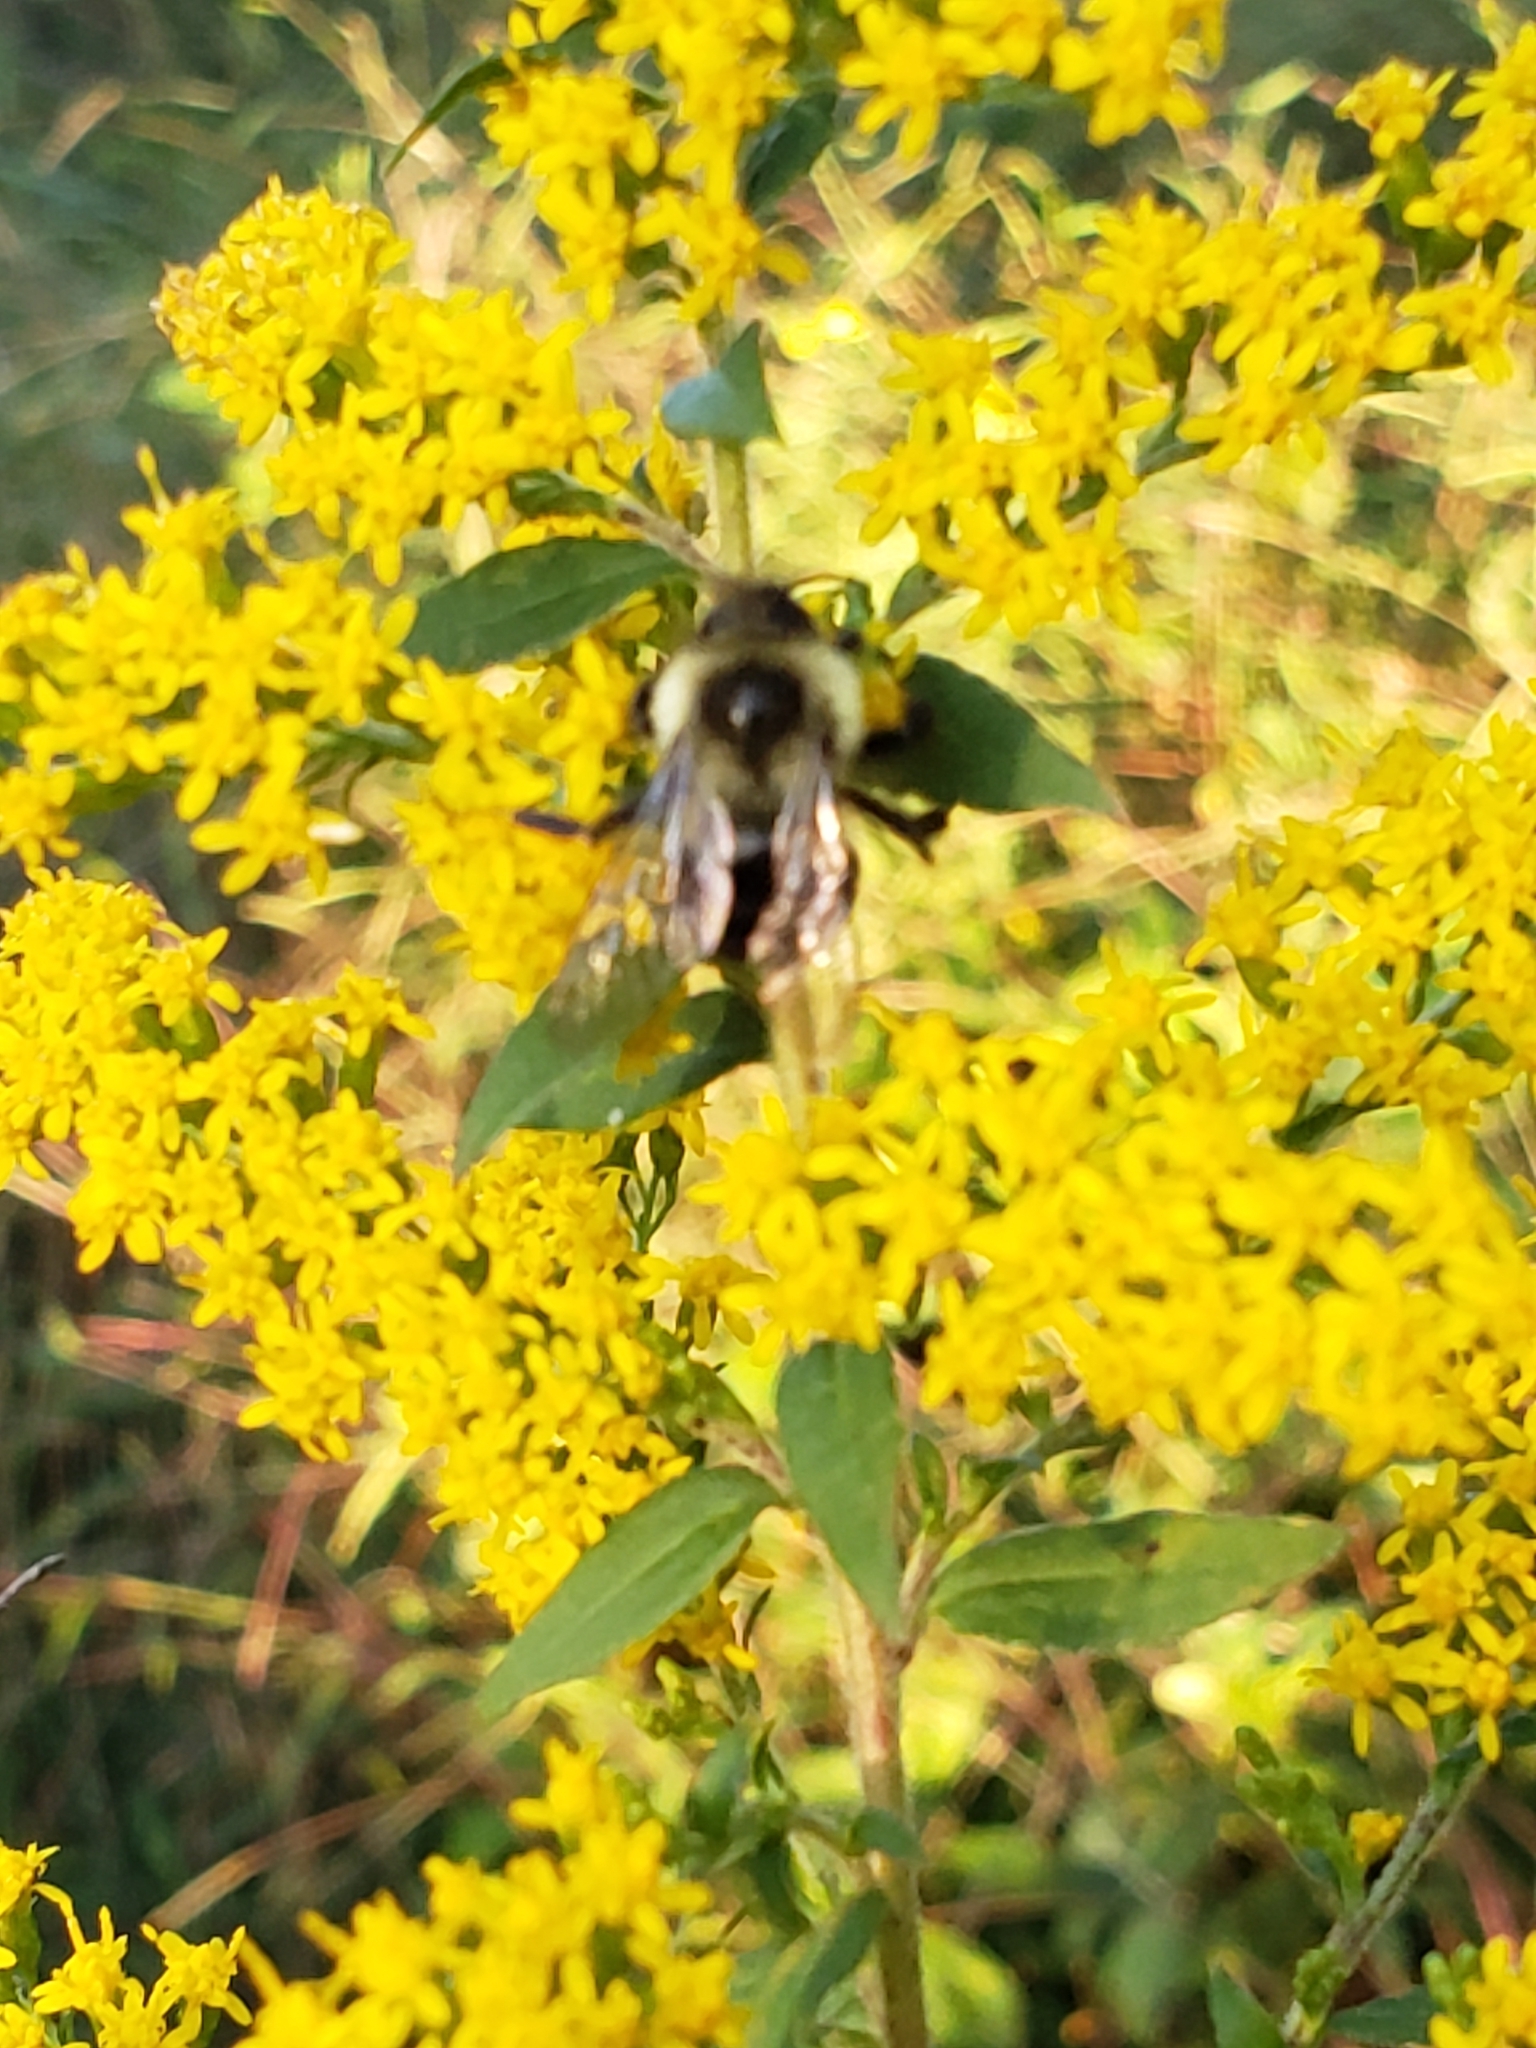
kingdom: Animalia
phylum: Arthropoda
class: Insecta
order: Hymenoptera
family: Apidae
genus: Bombus
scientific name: Bombus impatiens
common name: Common eastern bumble bee
